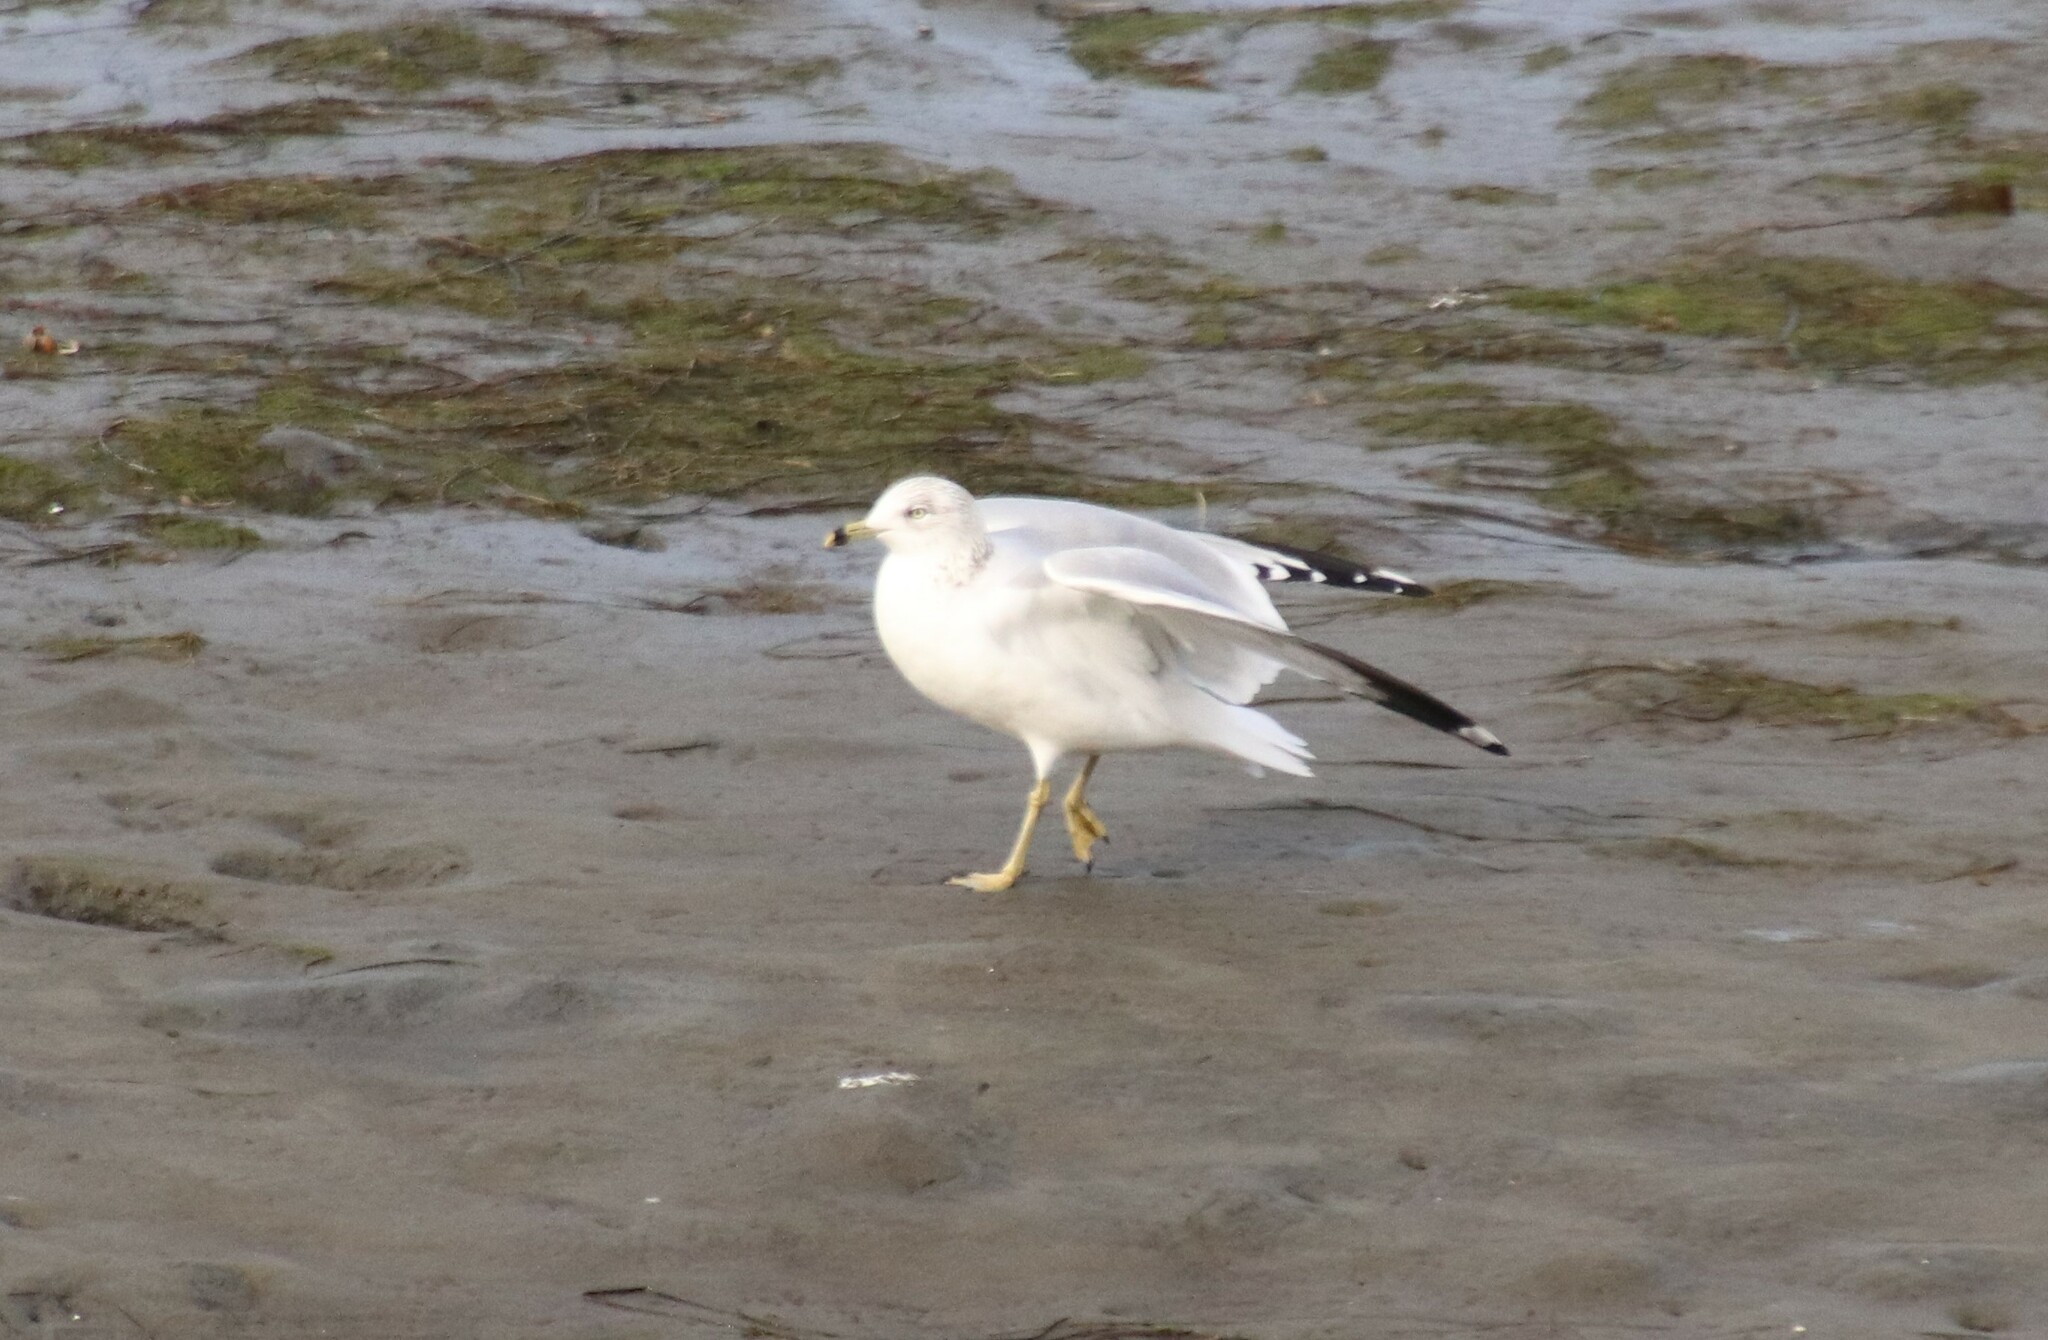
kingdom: Animalia
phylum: Chordata
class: Aves
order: Charadriiformes
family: Laridae
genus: Larus
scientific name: Larus delawarensis
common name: Ring-billed gull
